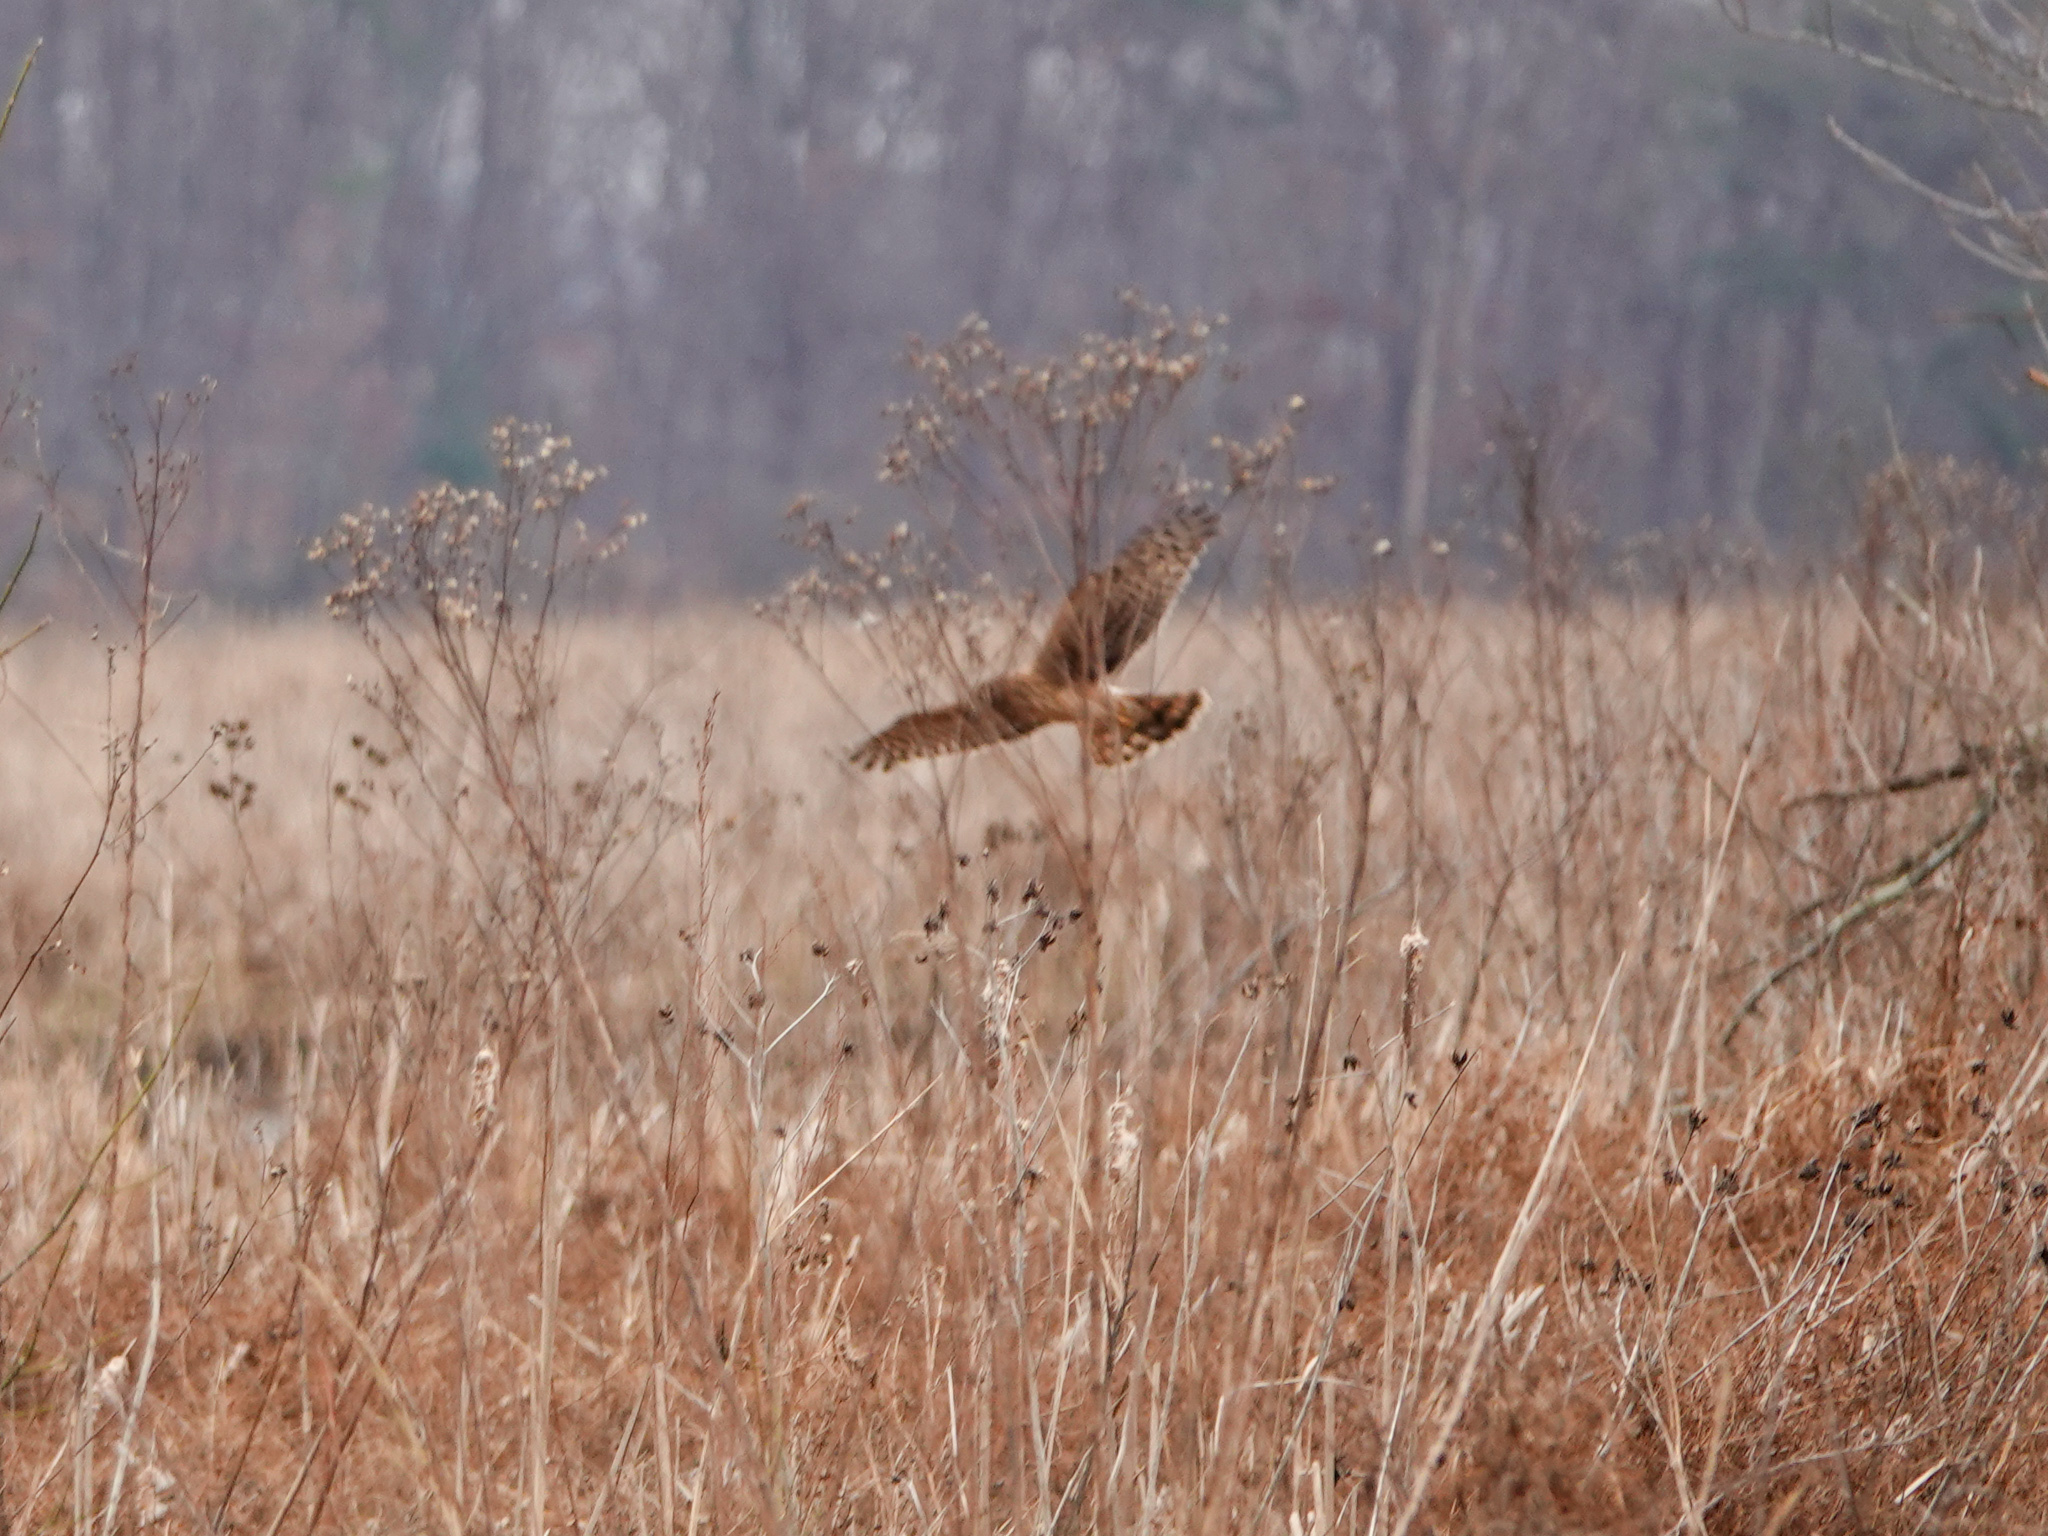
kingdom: Animalia
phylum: Chordata
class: Aves
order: Accipitriformes
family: Accipitridae
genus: Circus
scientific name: Circus cyaneus
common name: Hen harrier
